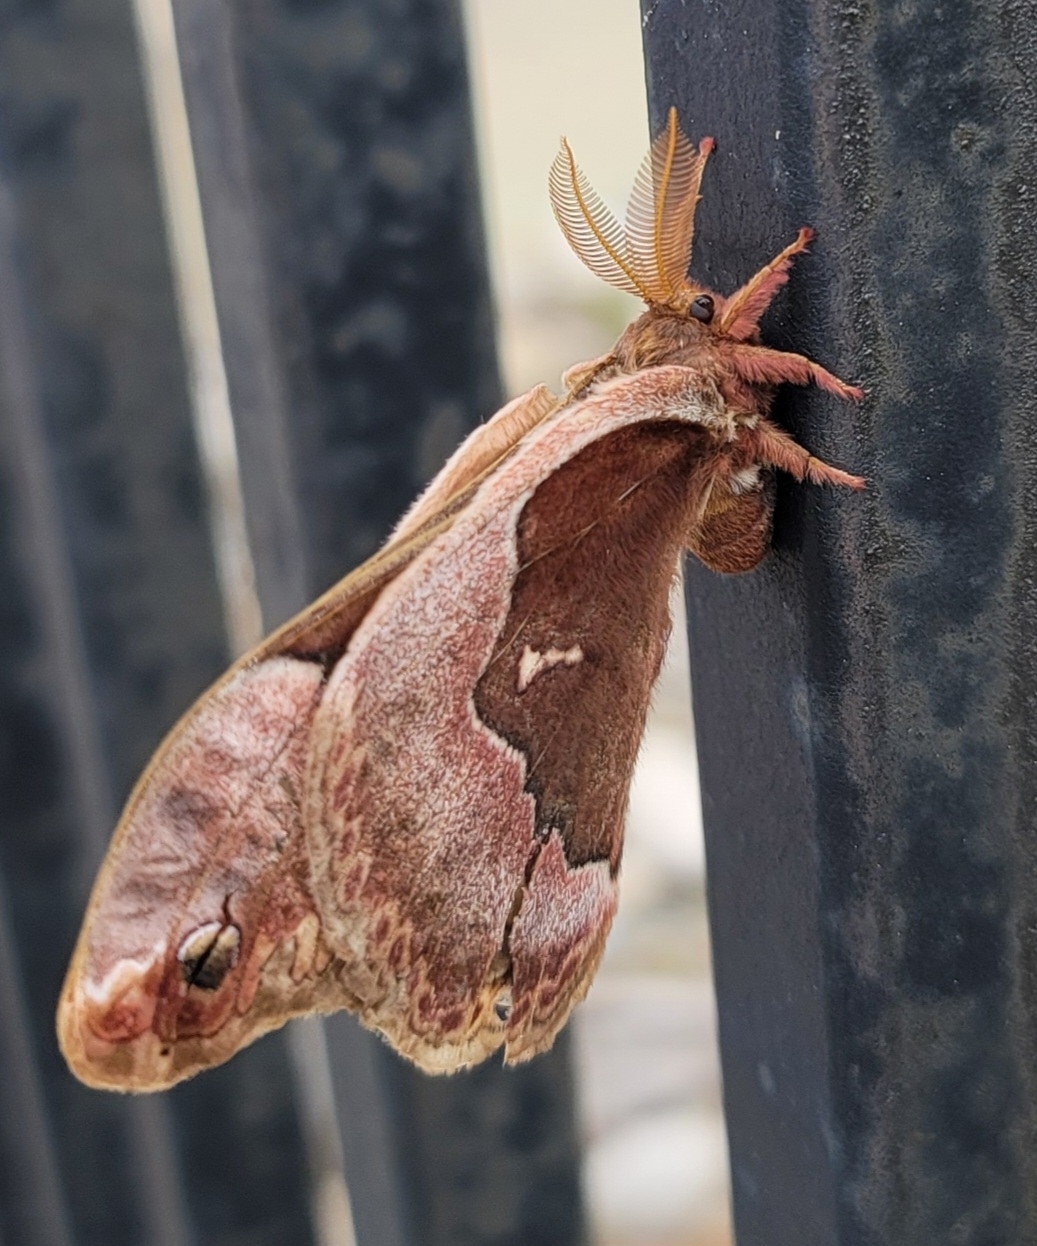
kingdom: Animalia
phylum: Arthropoda
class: Insecta
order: Lepidoptera
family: Saturniidae
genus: Callosamia
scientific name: Callosamia angulifera
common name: Tulip tree silkmoth
